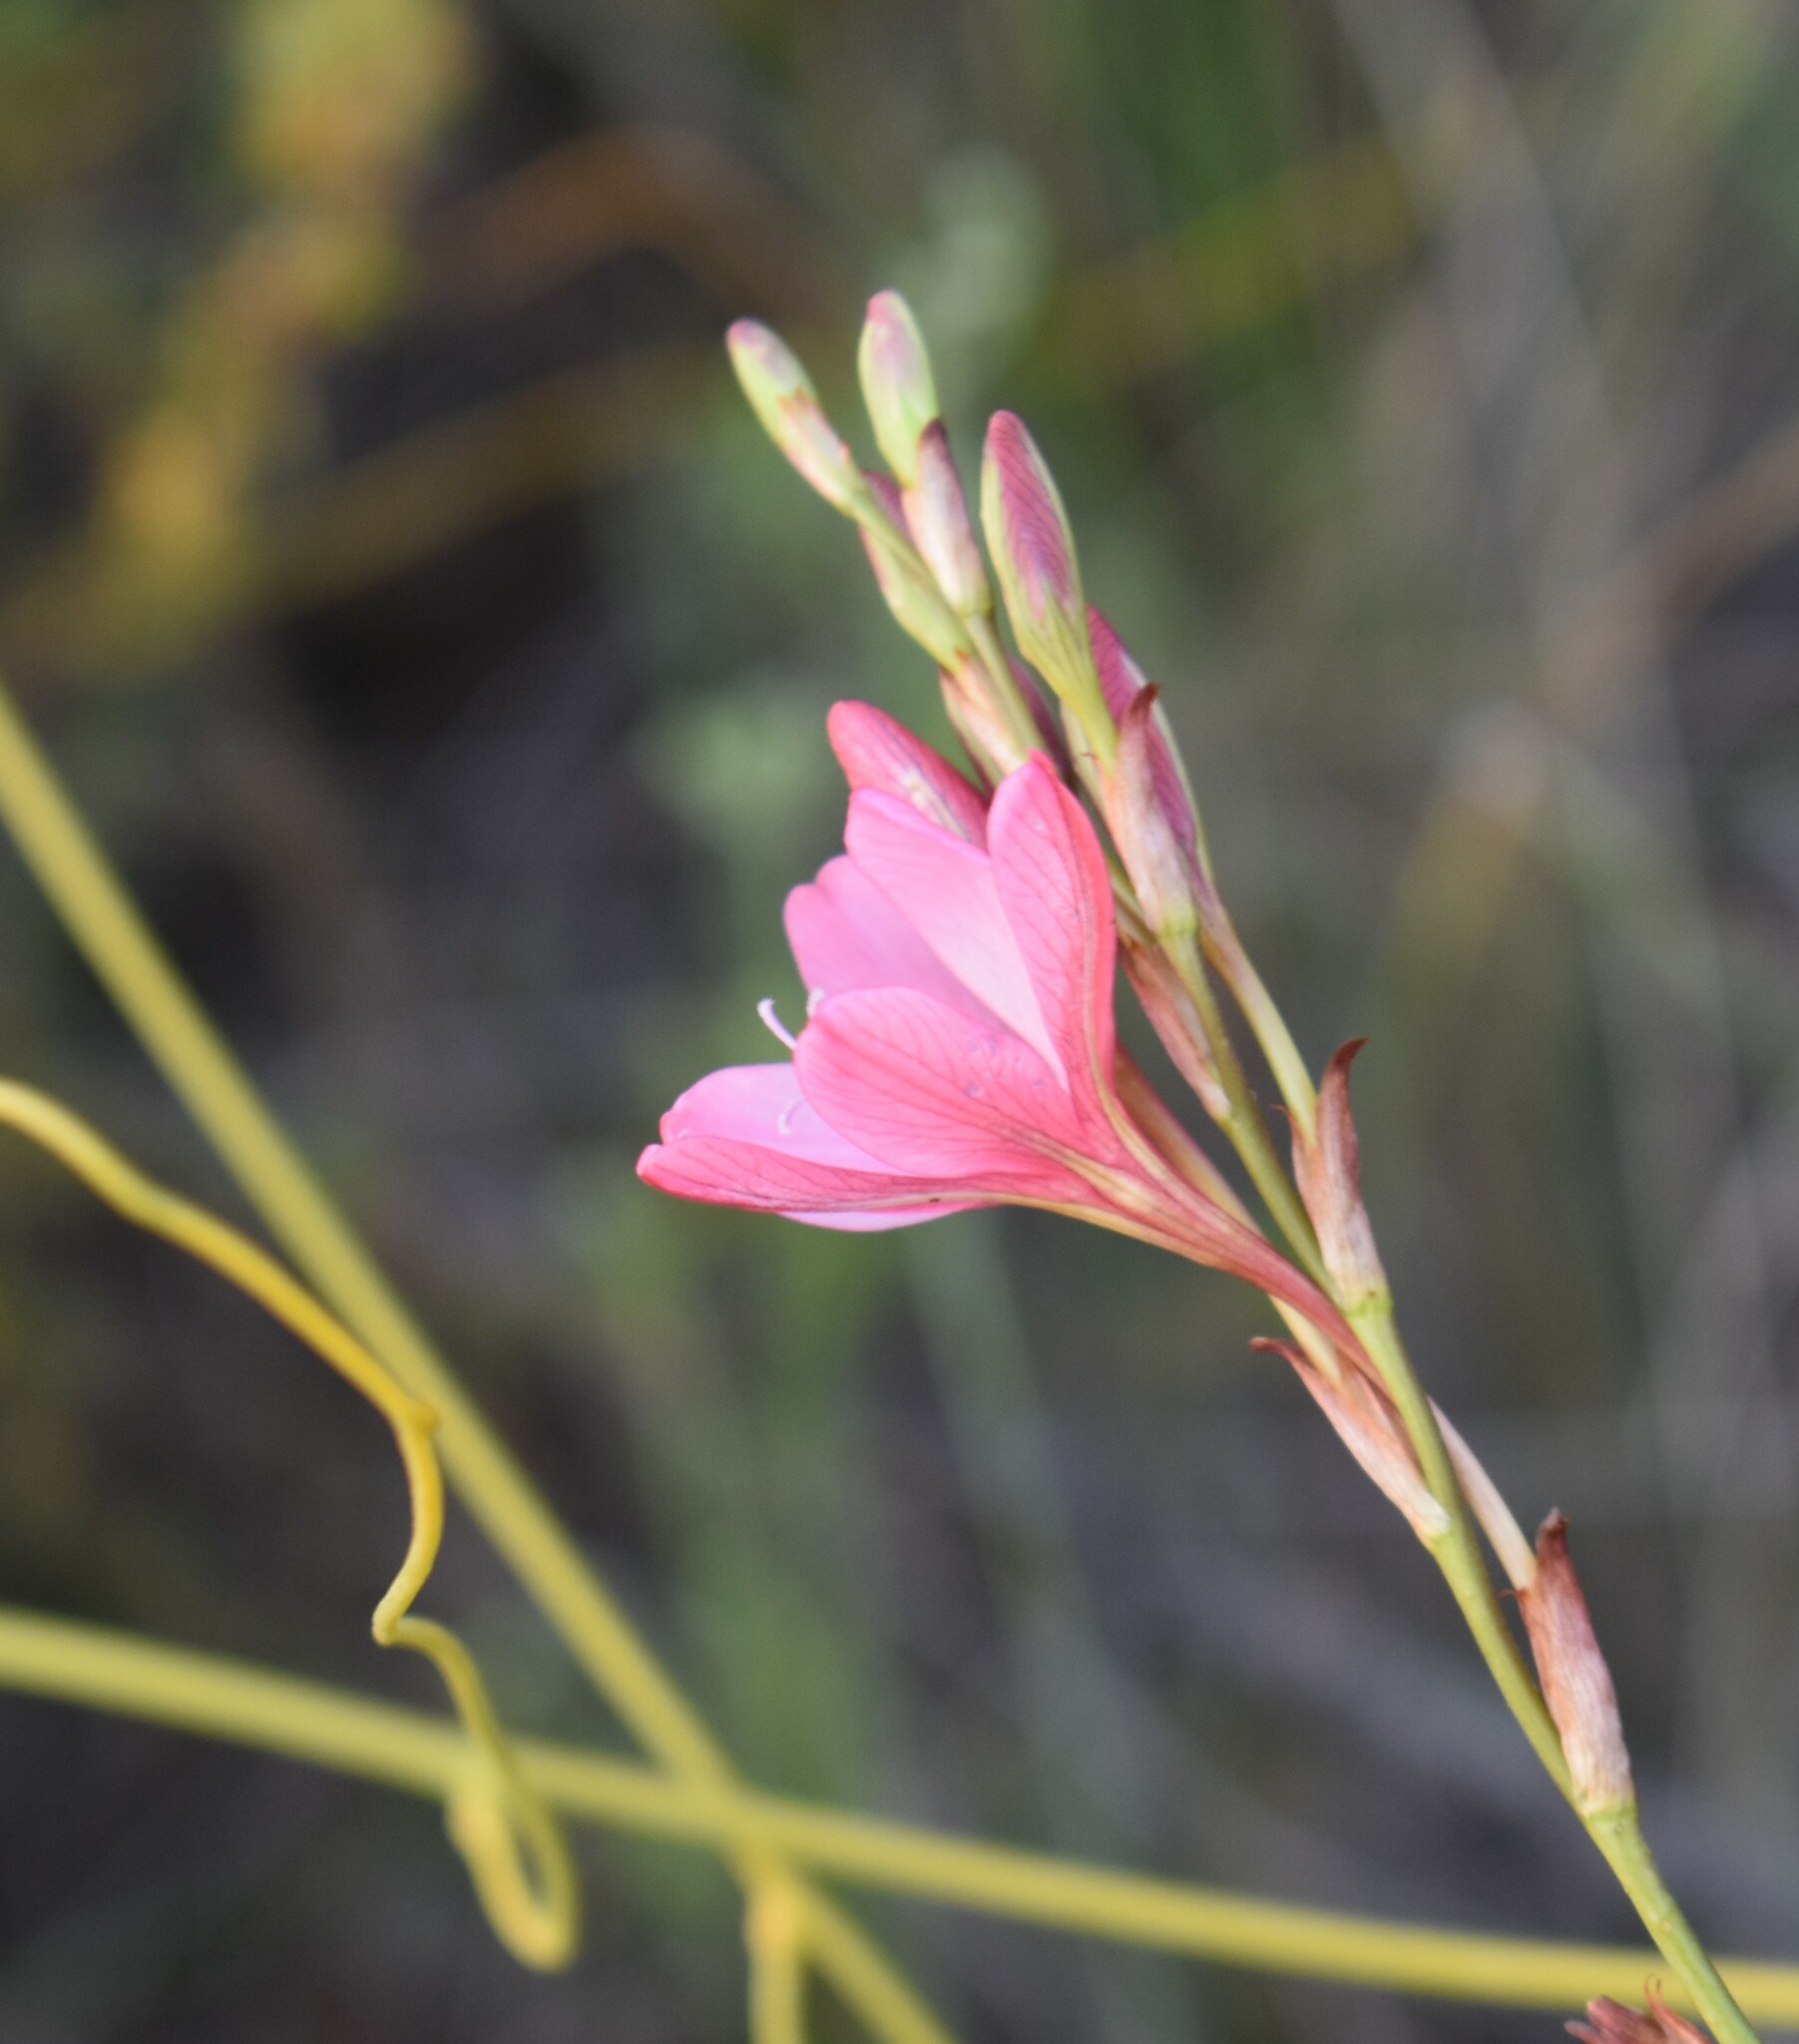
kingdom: Plantae
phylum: Tracheophyta
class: Liliopsida
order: Asparagales
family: Iridaceae
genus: Tritonia
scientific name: Tritonia bakeri
